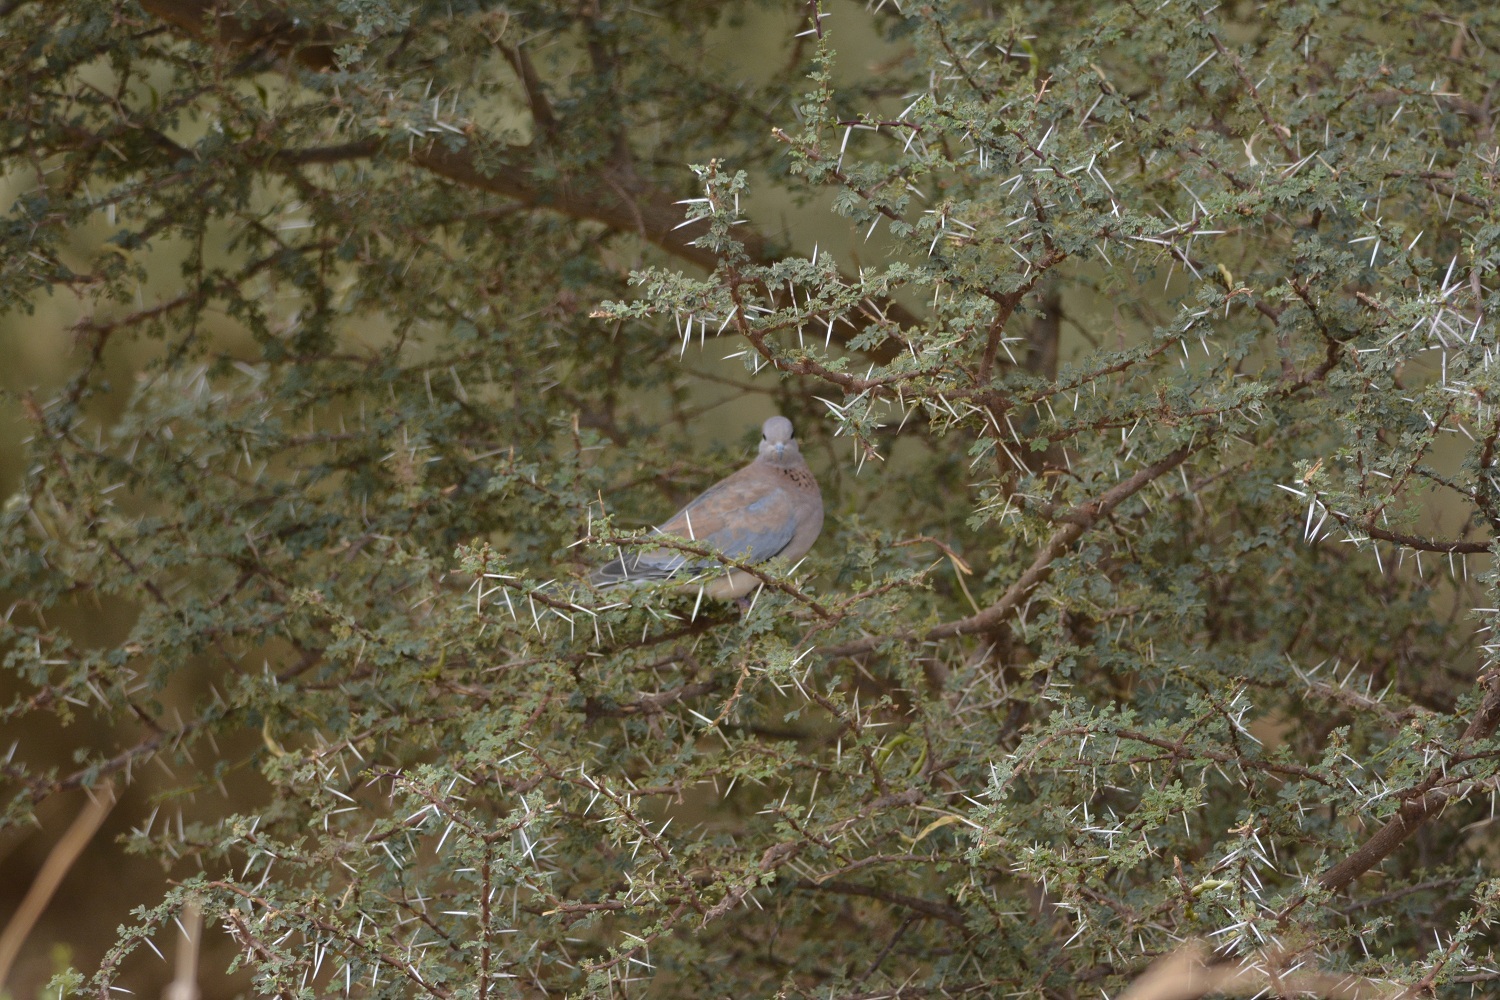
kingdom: Animalia
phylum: Chordata
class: Aves
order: Columbiformes
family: Columbidae
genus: Spilopelia
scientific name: Spilopelia senegalensis
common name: Laughing dove
